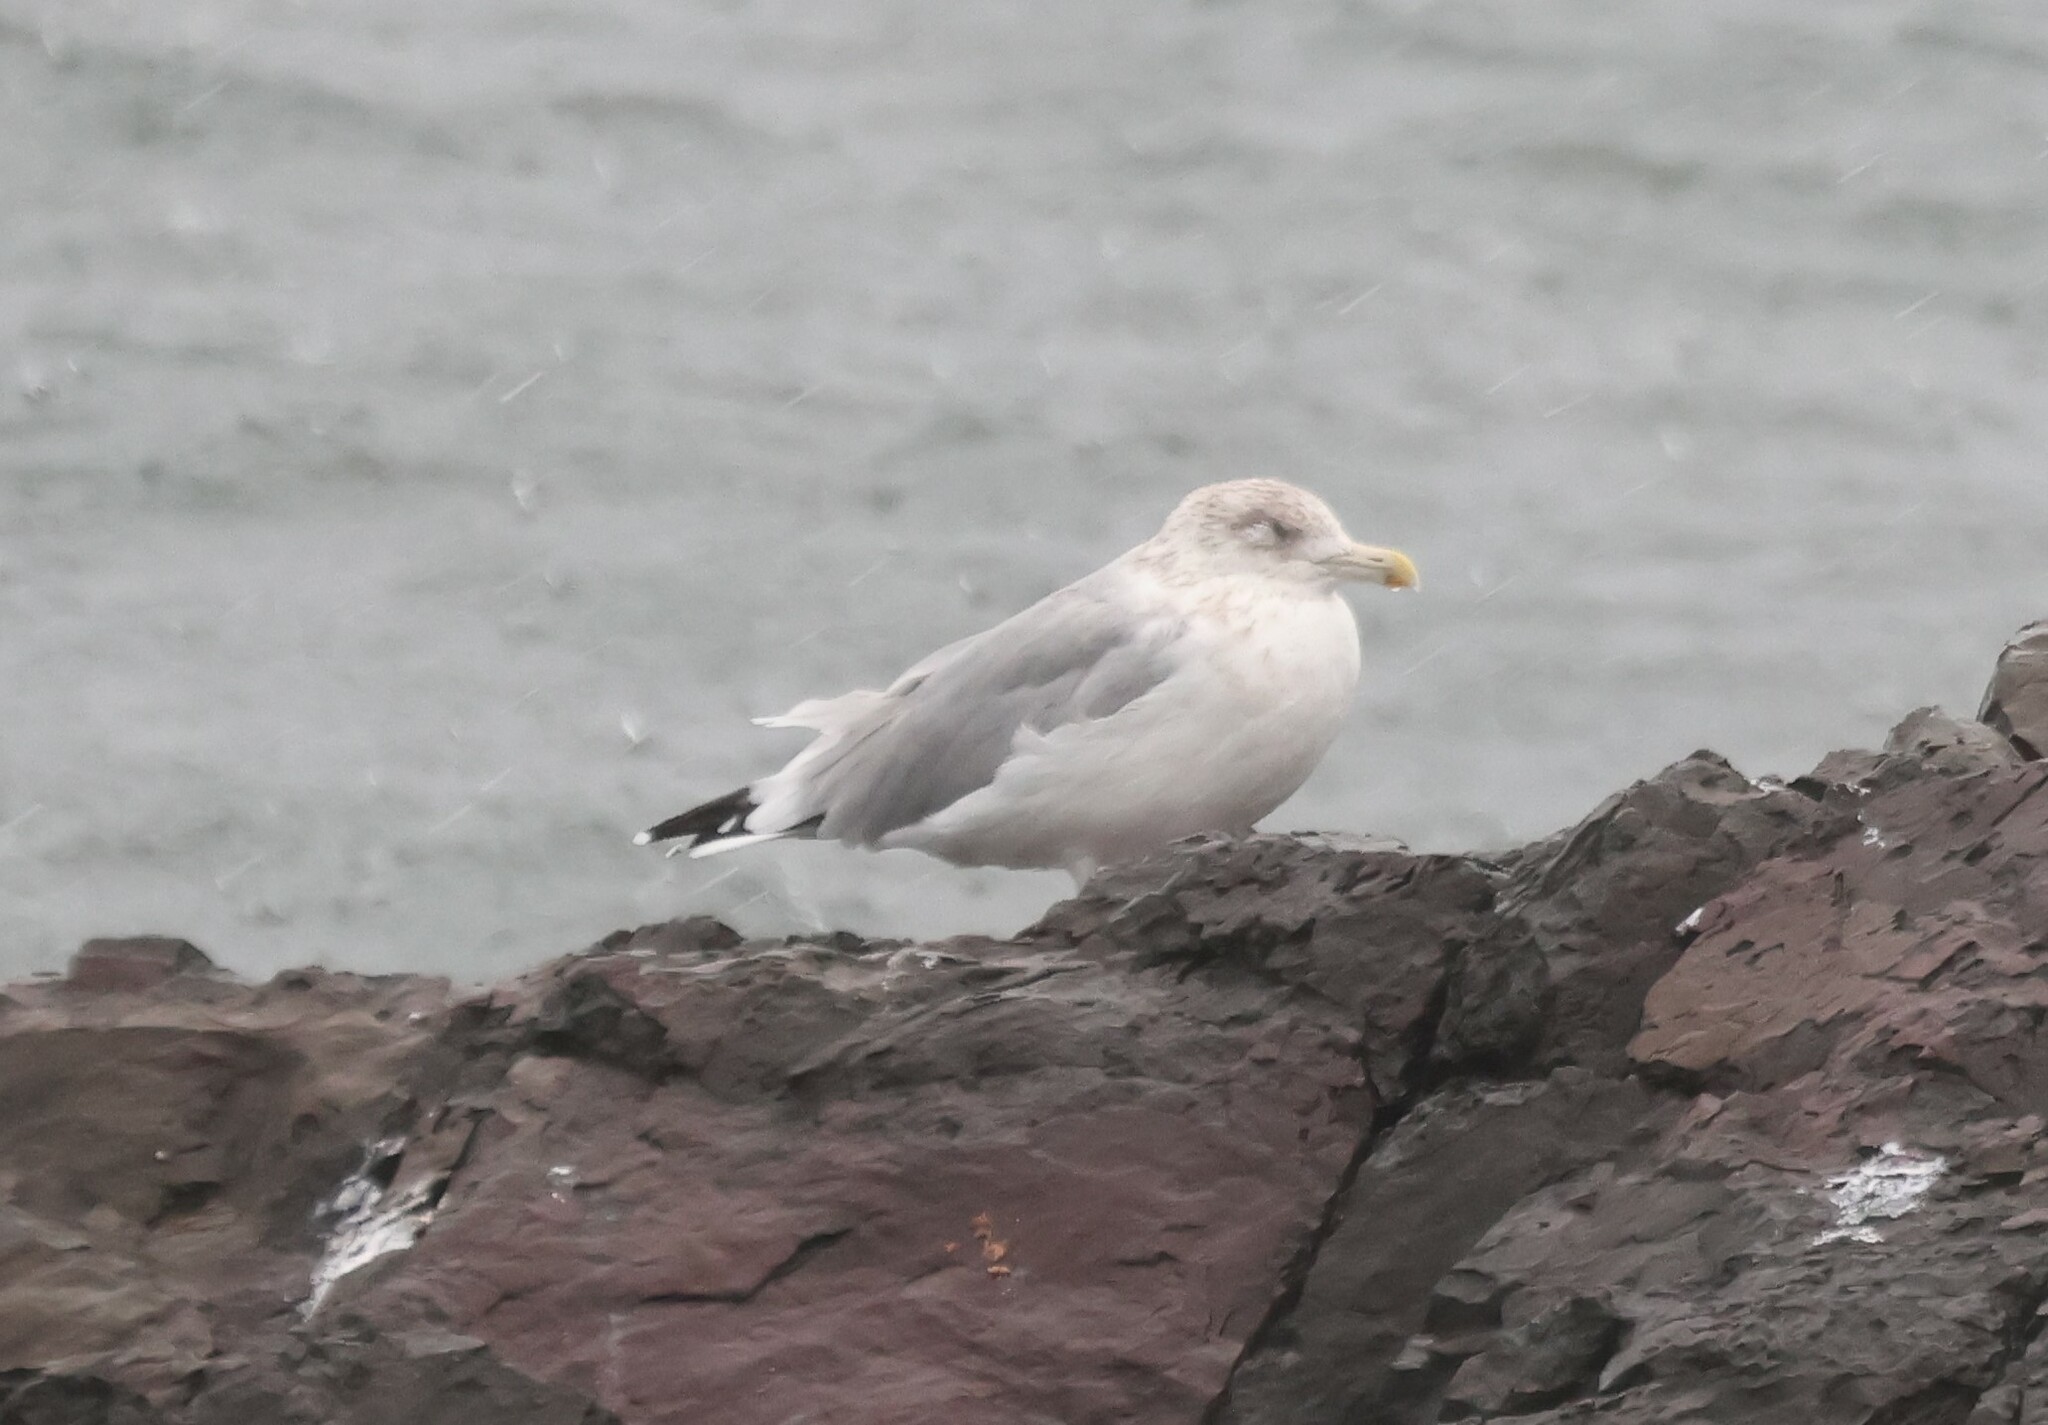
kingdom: Animalia
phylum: Chordata
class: Aves
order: Charadriiformes
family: Laridae
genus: Larus
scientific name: Larus argentatus
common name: Herring gull
